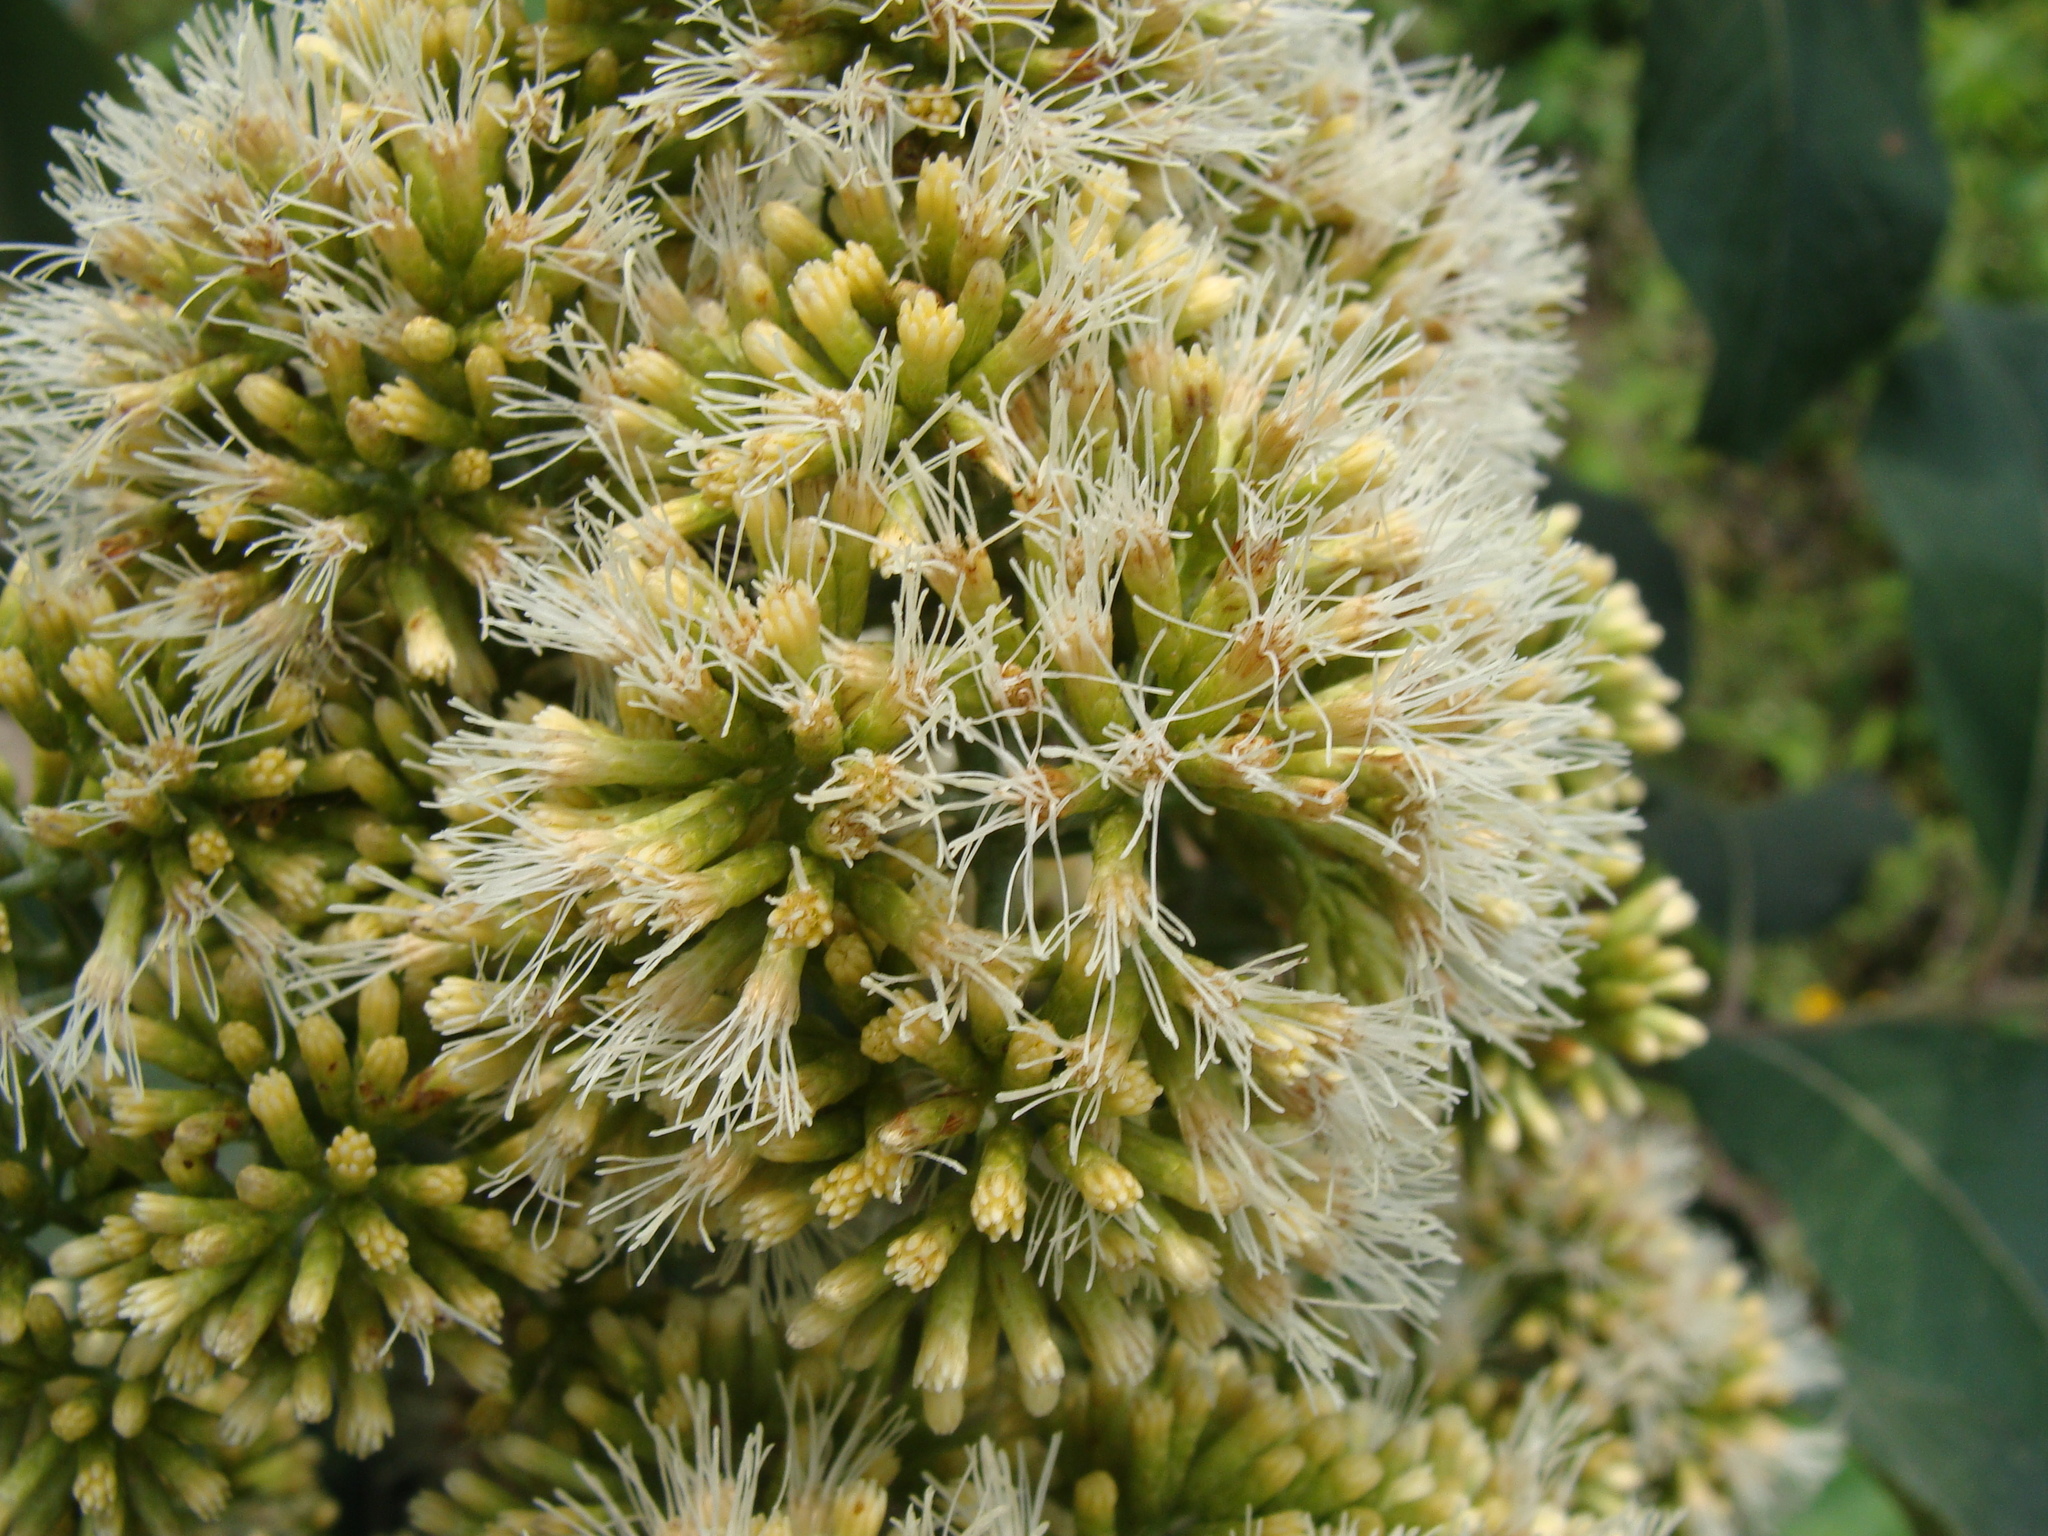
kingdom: Plantae
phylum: Tracheophyta
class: Magnoliopsida
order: Asterales
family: Asteraceae
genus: Critonia
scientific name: Critonia morifolia
